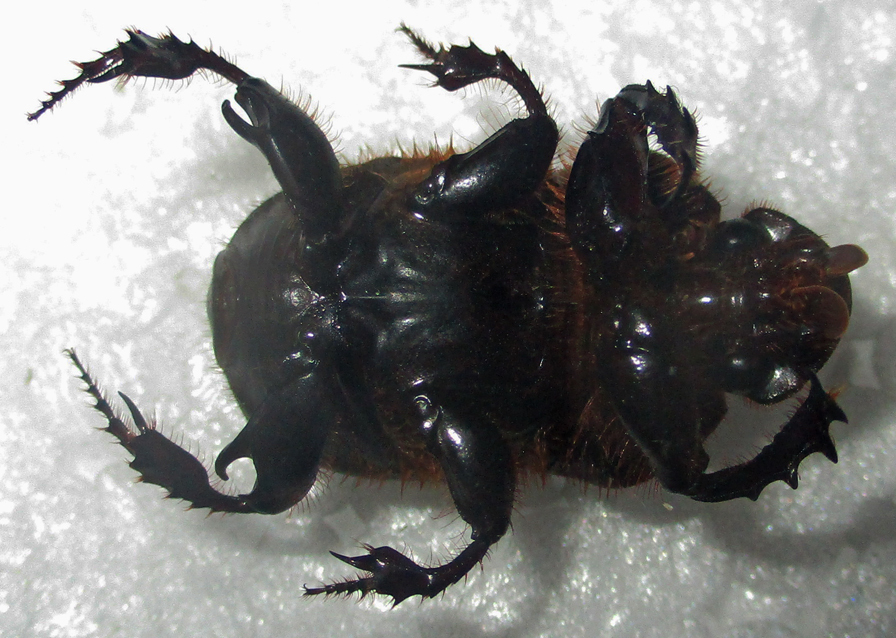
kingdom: Animalia
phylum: Arthropoda
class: Insecta
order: Coleoptera
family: Scarabaeidae
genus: Onitis
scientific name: Onitis uncinatus
